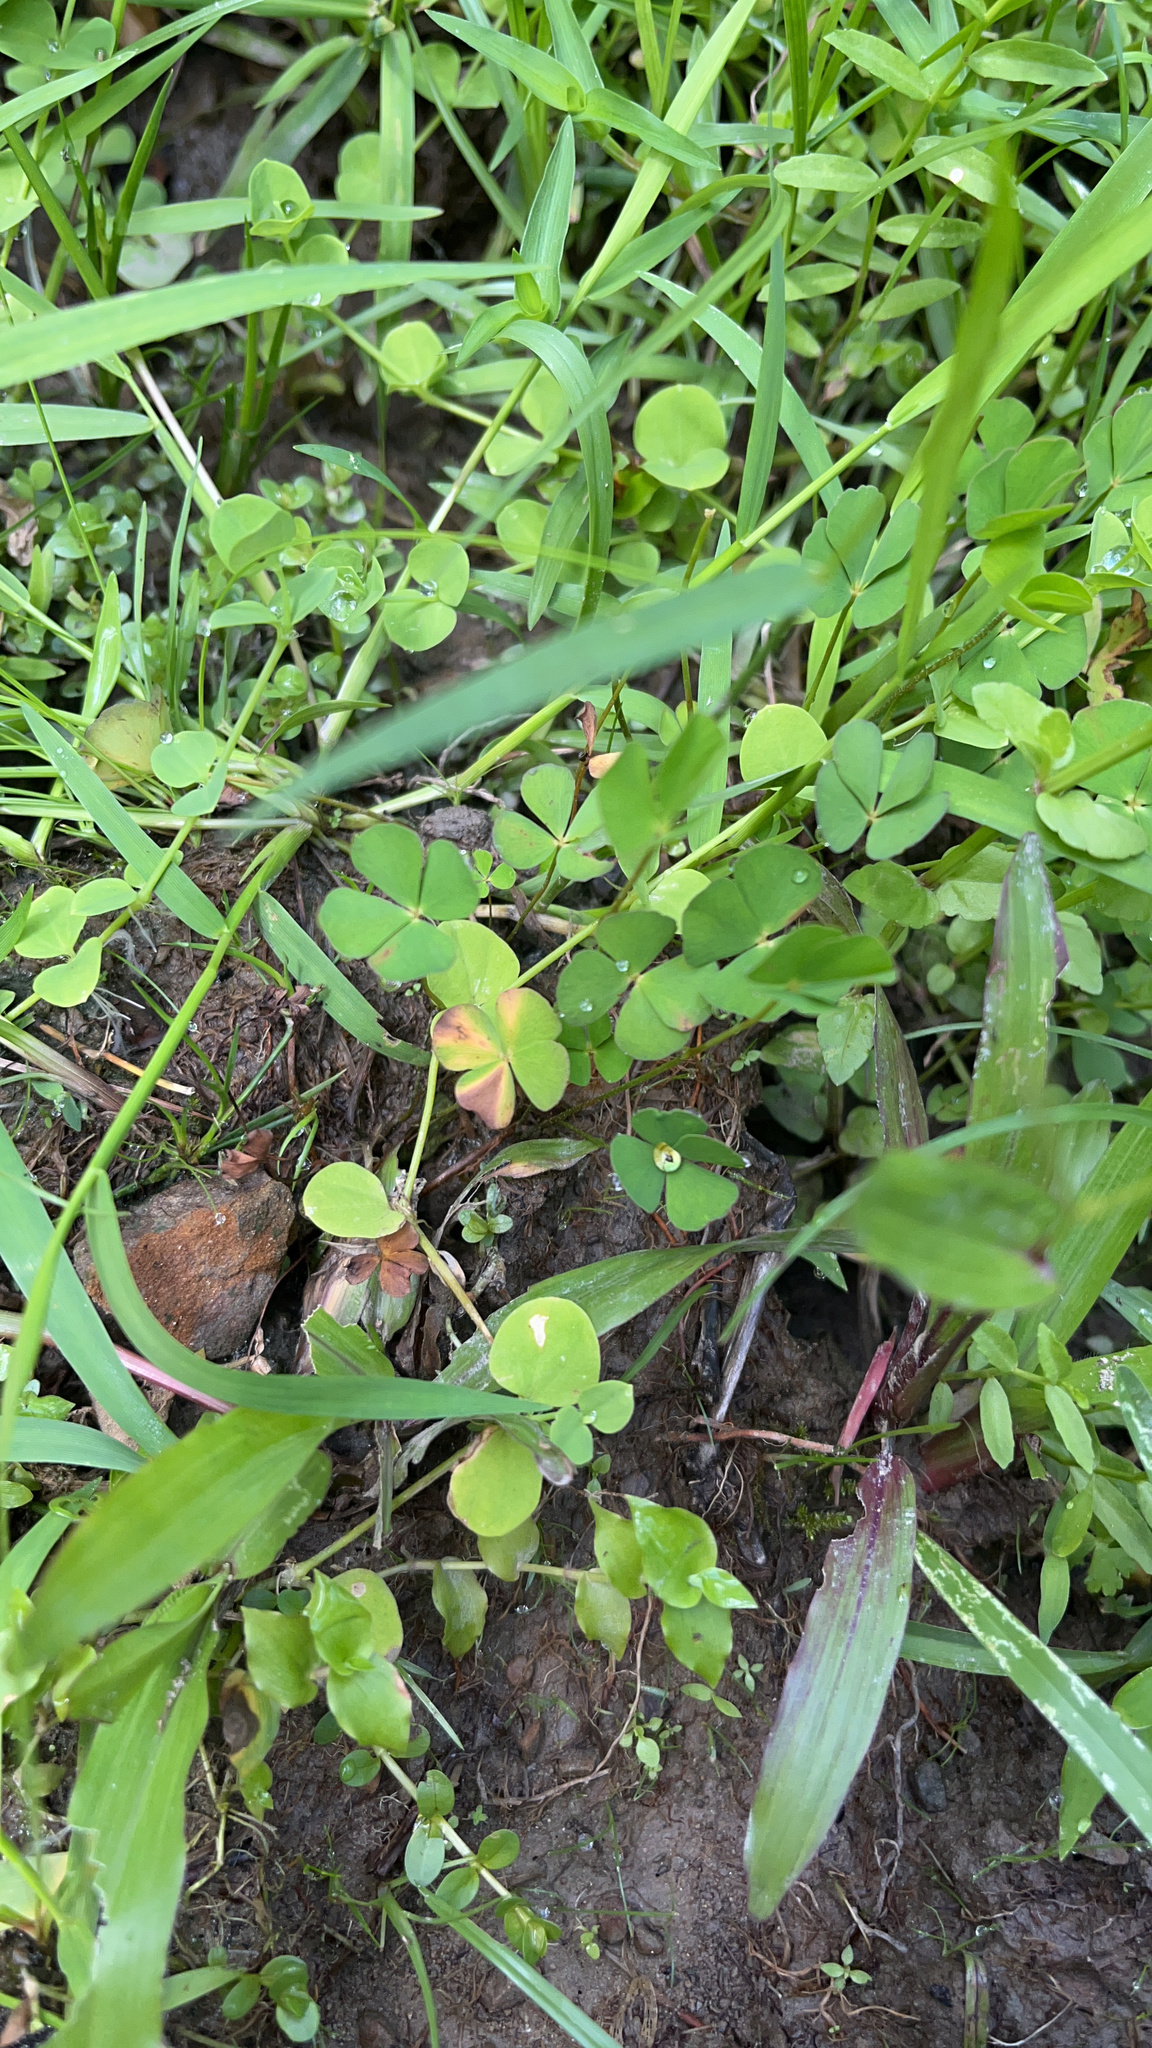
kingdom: Plantae
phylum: Tracheophyta
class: Polypodiopsida
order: Salviniales
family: Marsileaceae
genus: Marsilea
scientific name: Marsilea minuta
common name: Dwarf waterclover
